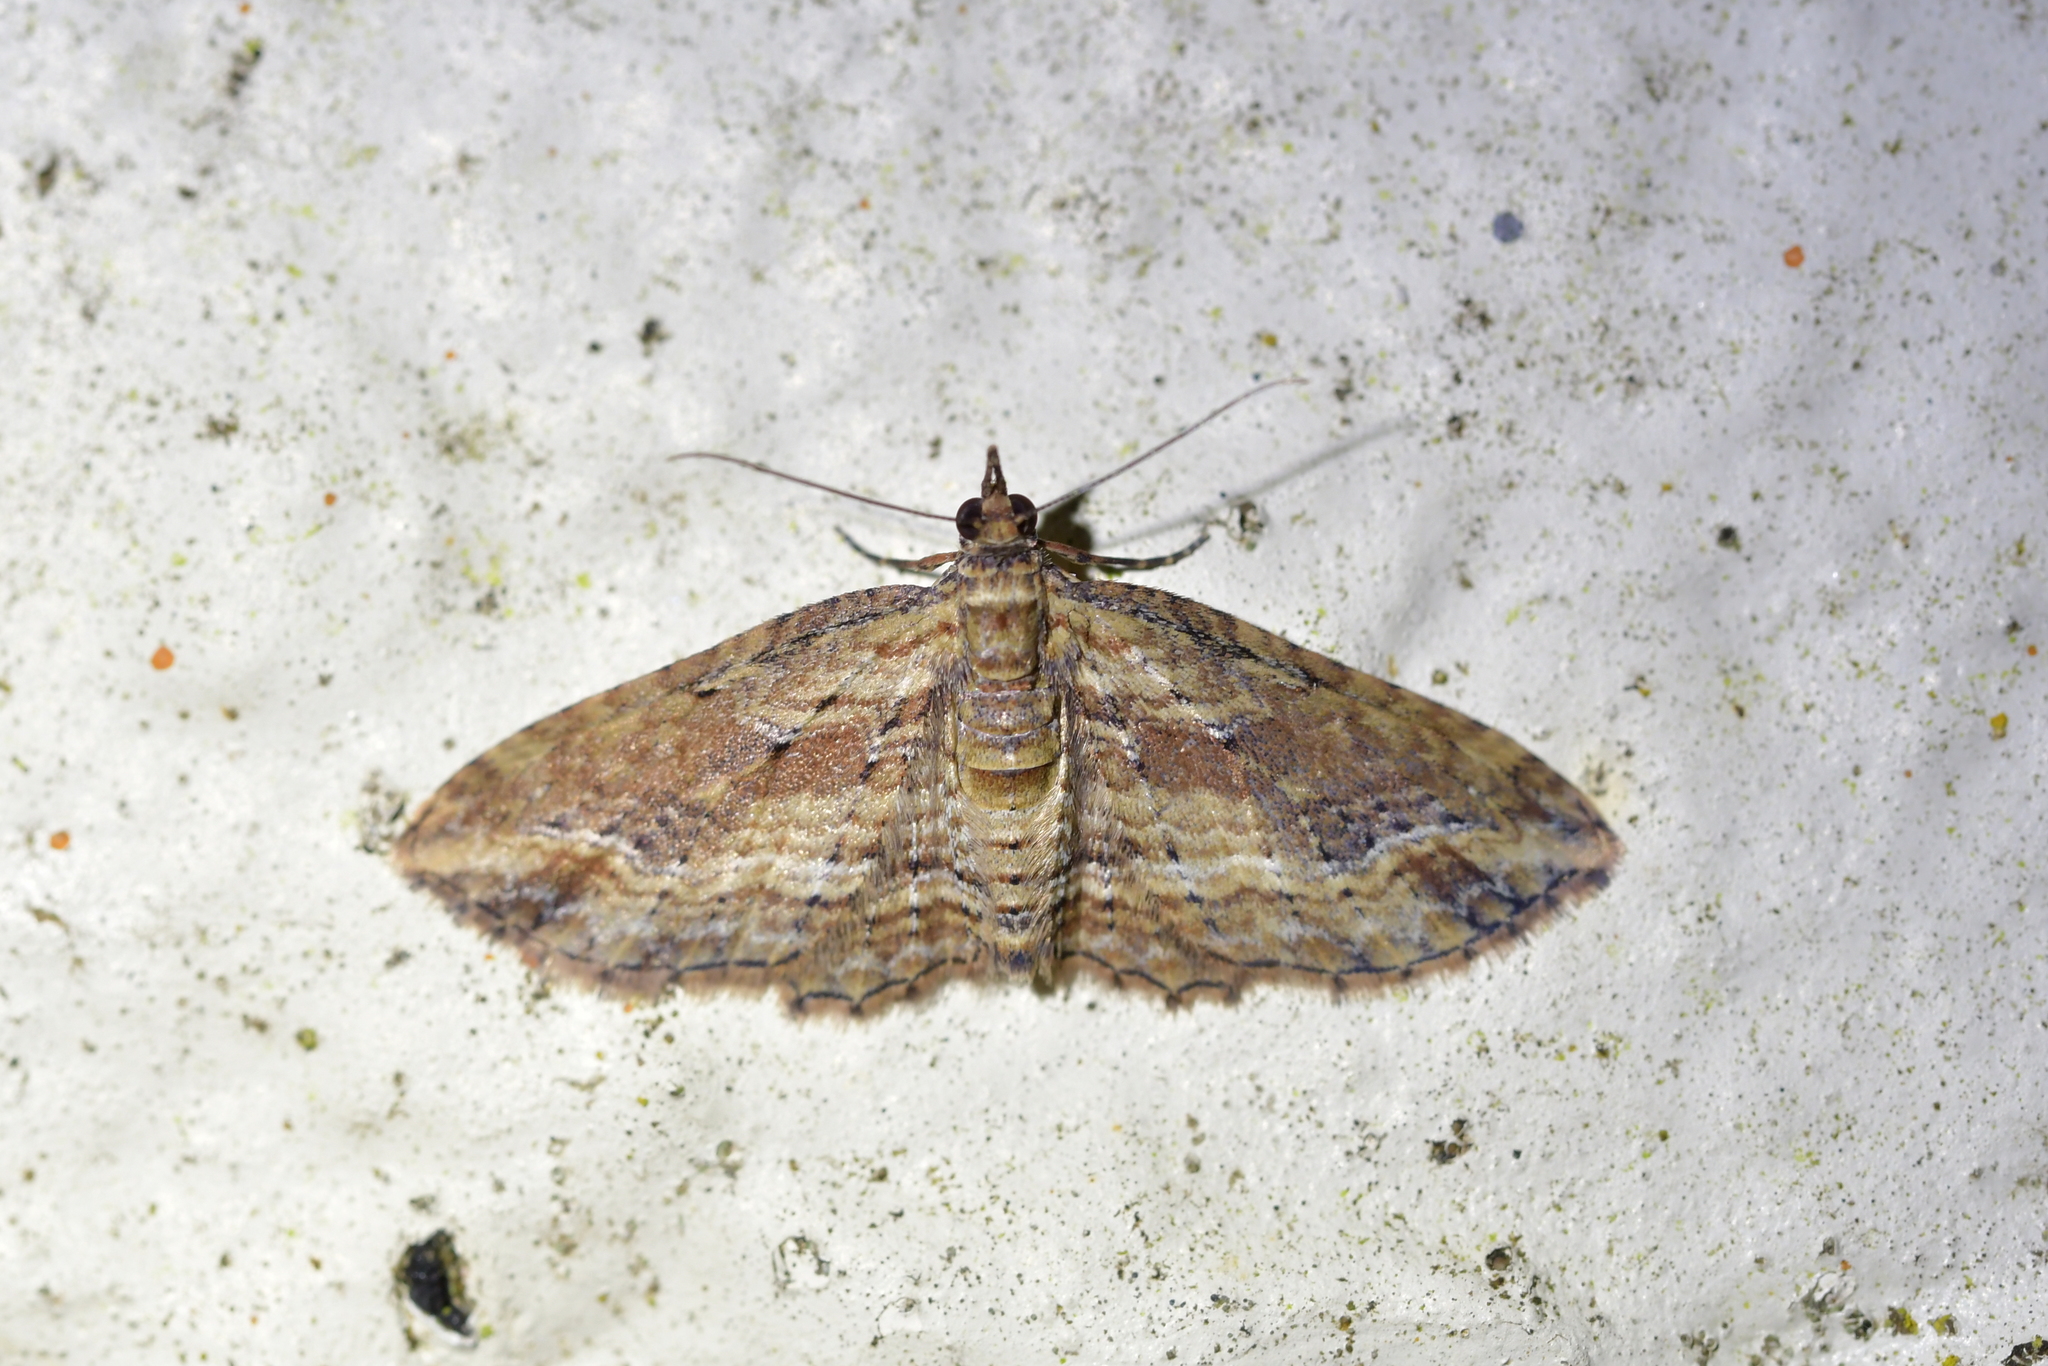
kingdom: Animalia
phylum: Arthropoda
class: Insecta
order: Lepidoptera
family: Geometridae
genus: Chloroclystis
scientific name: Chloroclystis filata
